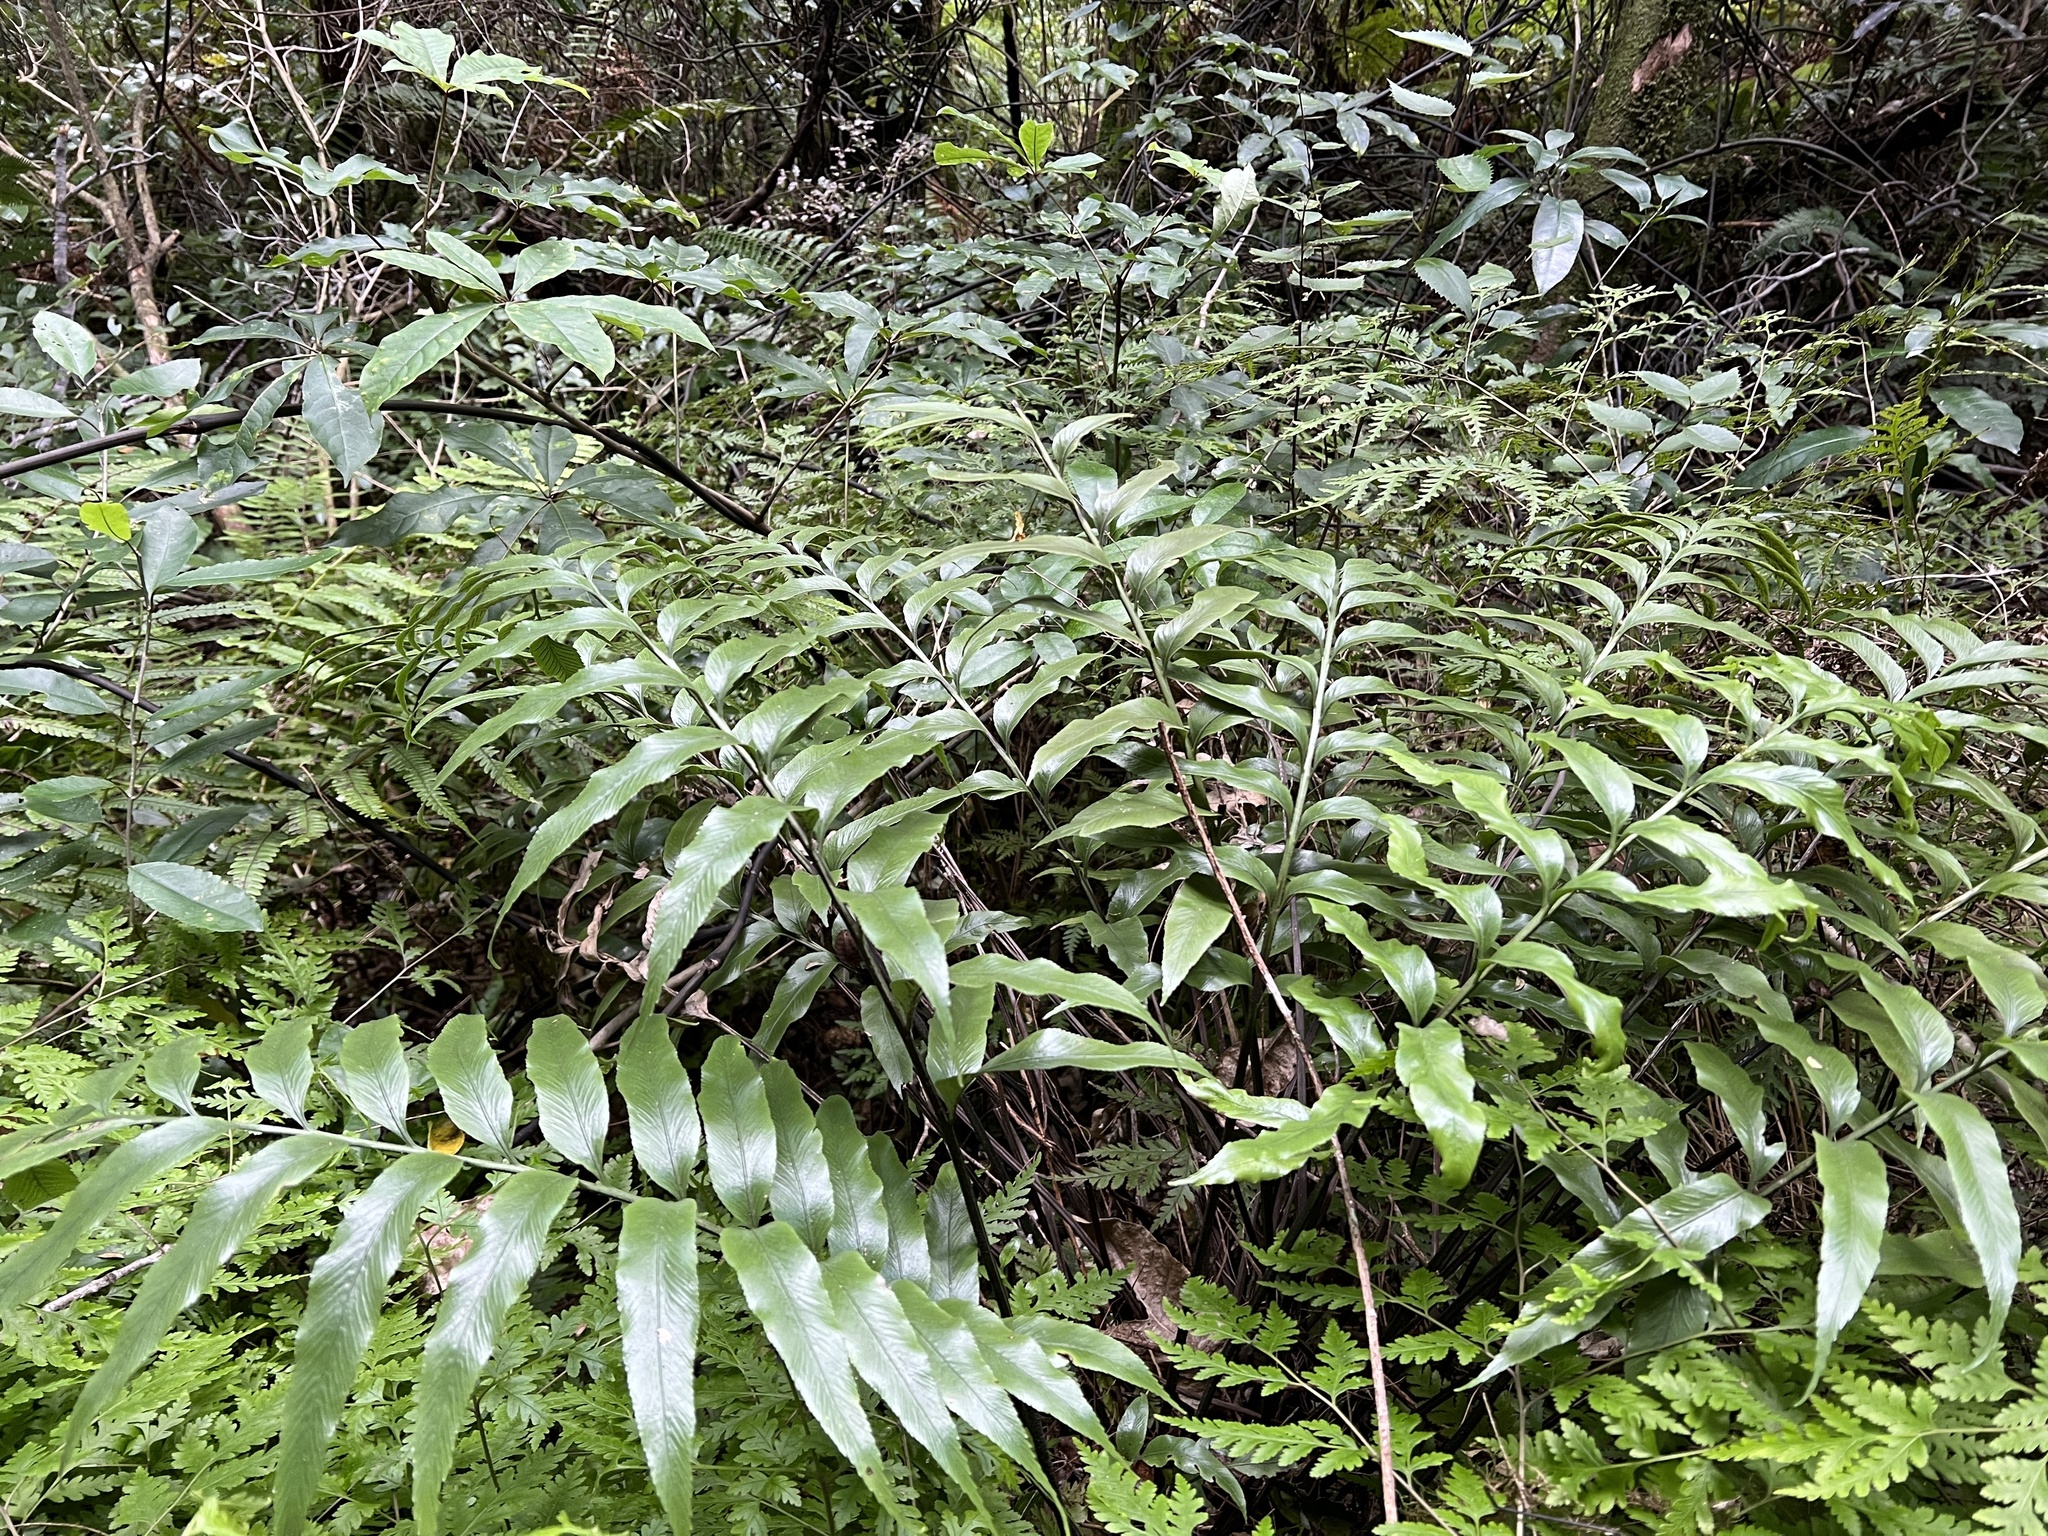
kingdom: Plantae
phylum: Tracheophyta
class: Polypodiopsida
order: Polypodiales
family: Aspleniaceae
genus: Asplenium
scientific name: Asplenium oblongifolium
